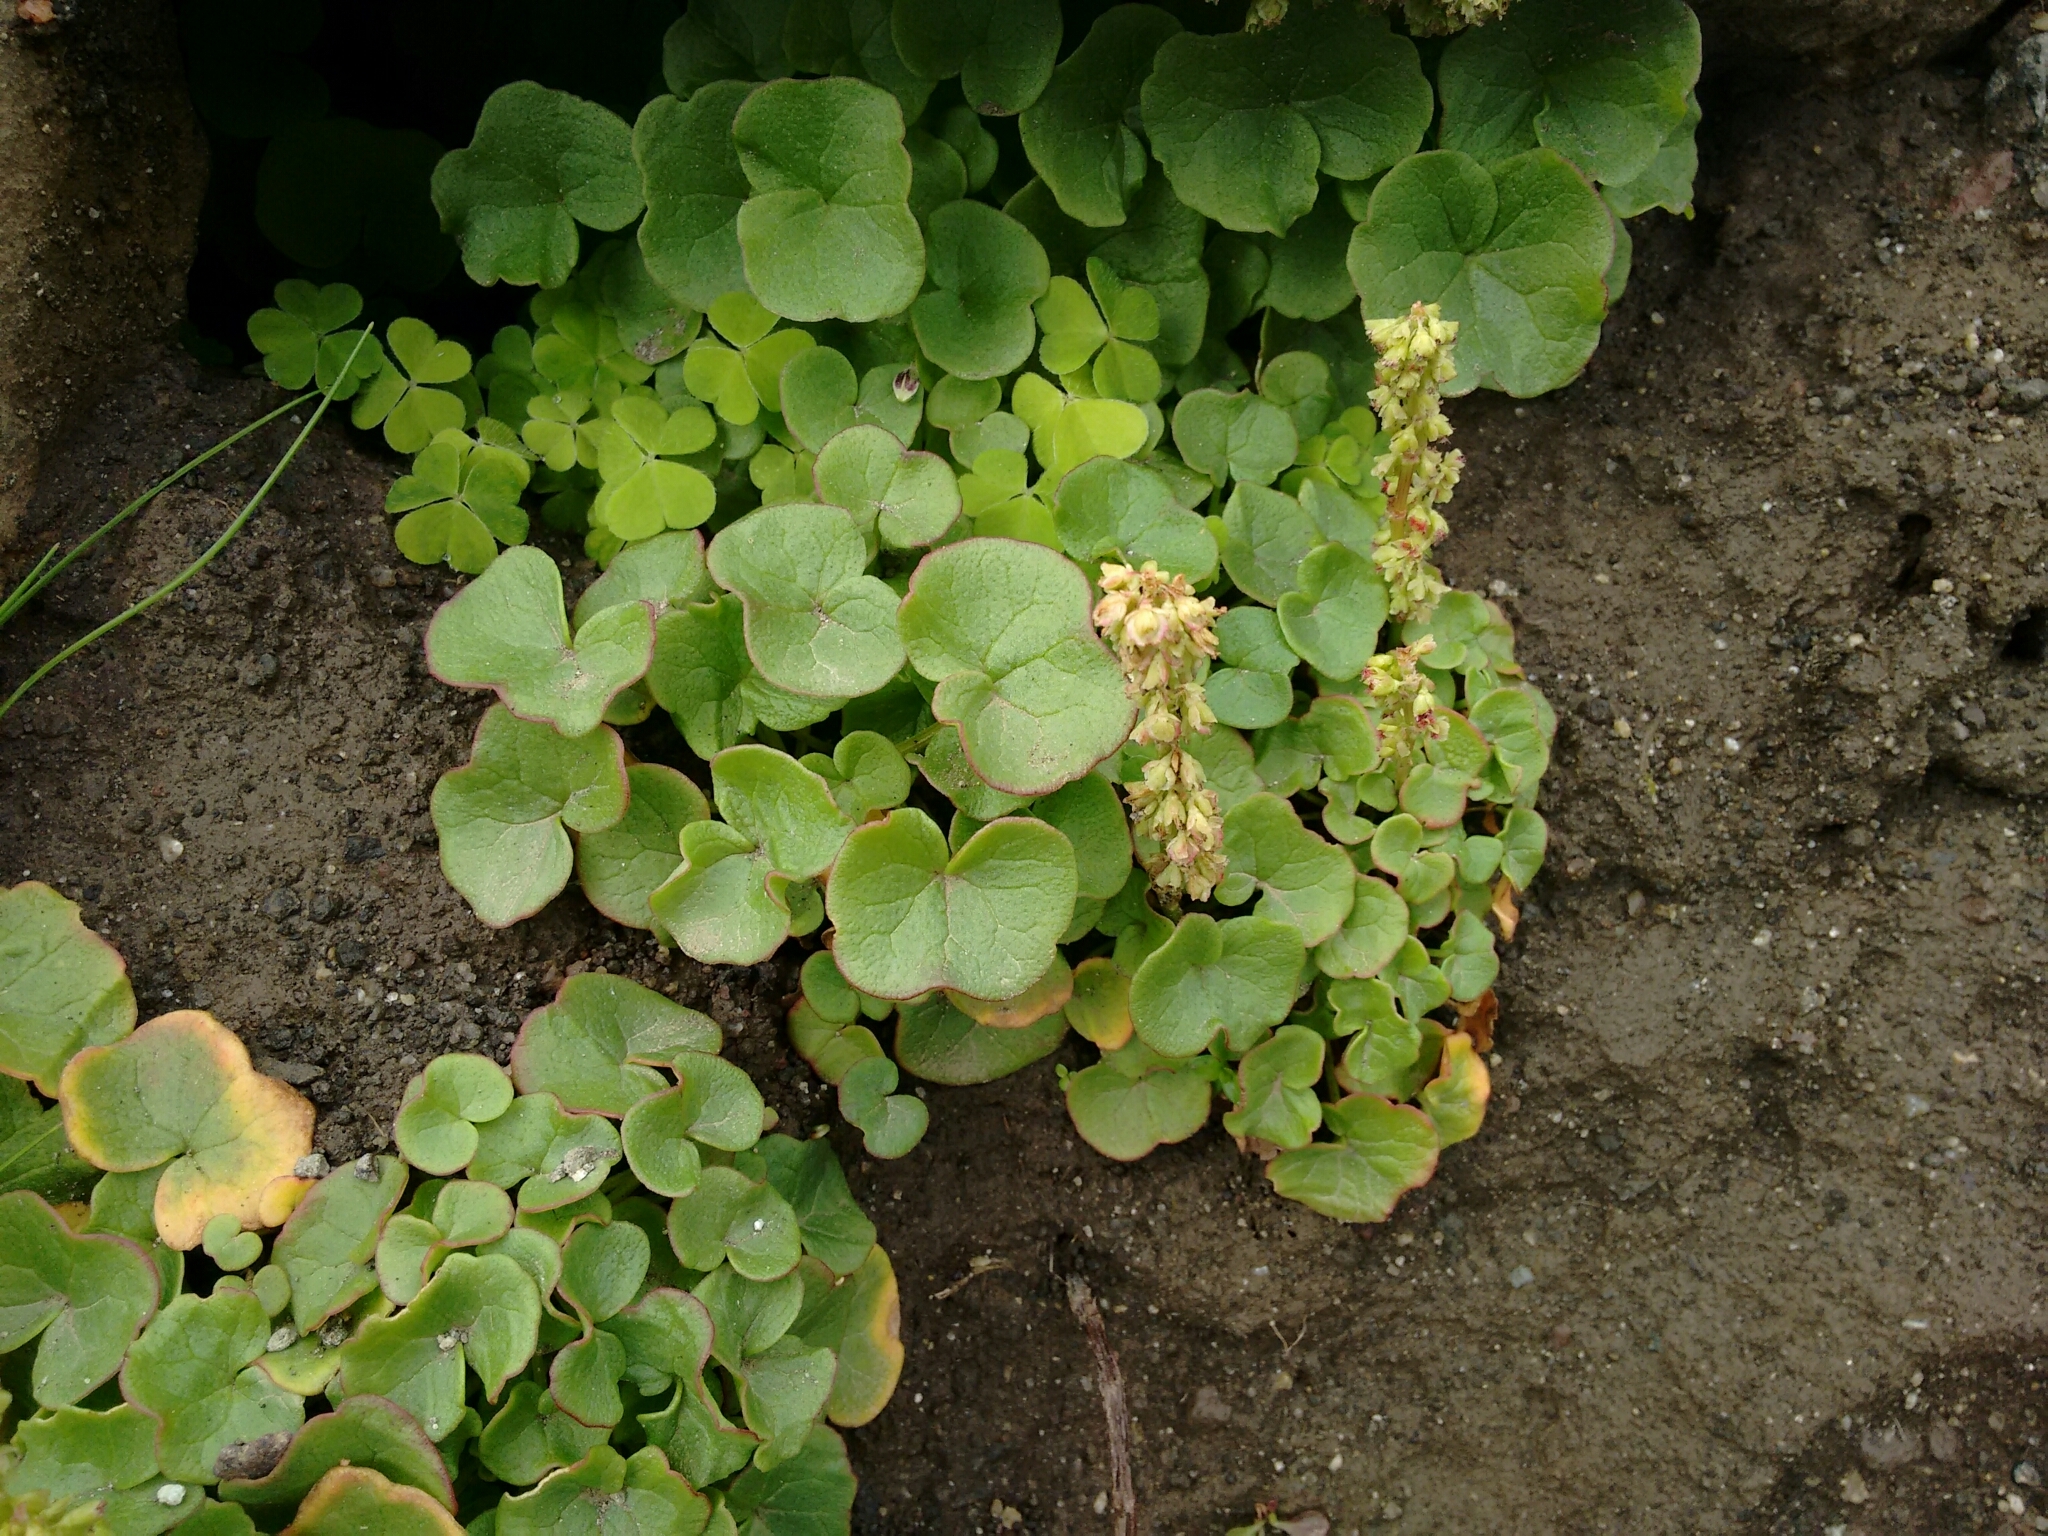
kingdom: Plantae
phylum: Tracheophyta
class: Magnoliopsida
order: Caryophyllales
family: Polygonaceae
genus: Oxyria
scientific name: Oxyria digyna
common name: Alpine mountain-sorrel
